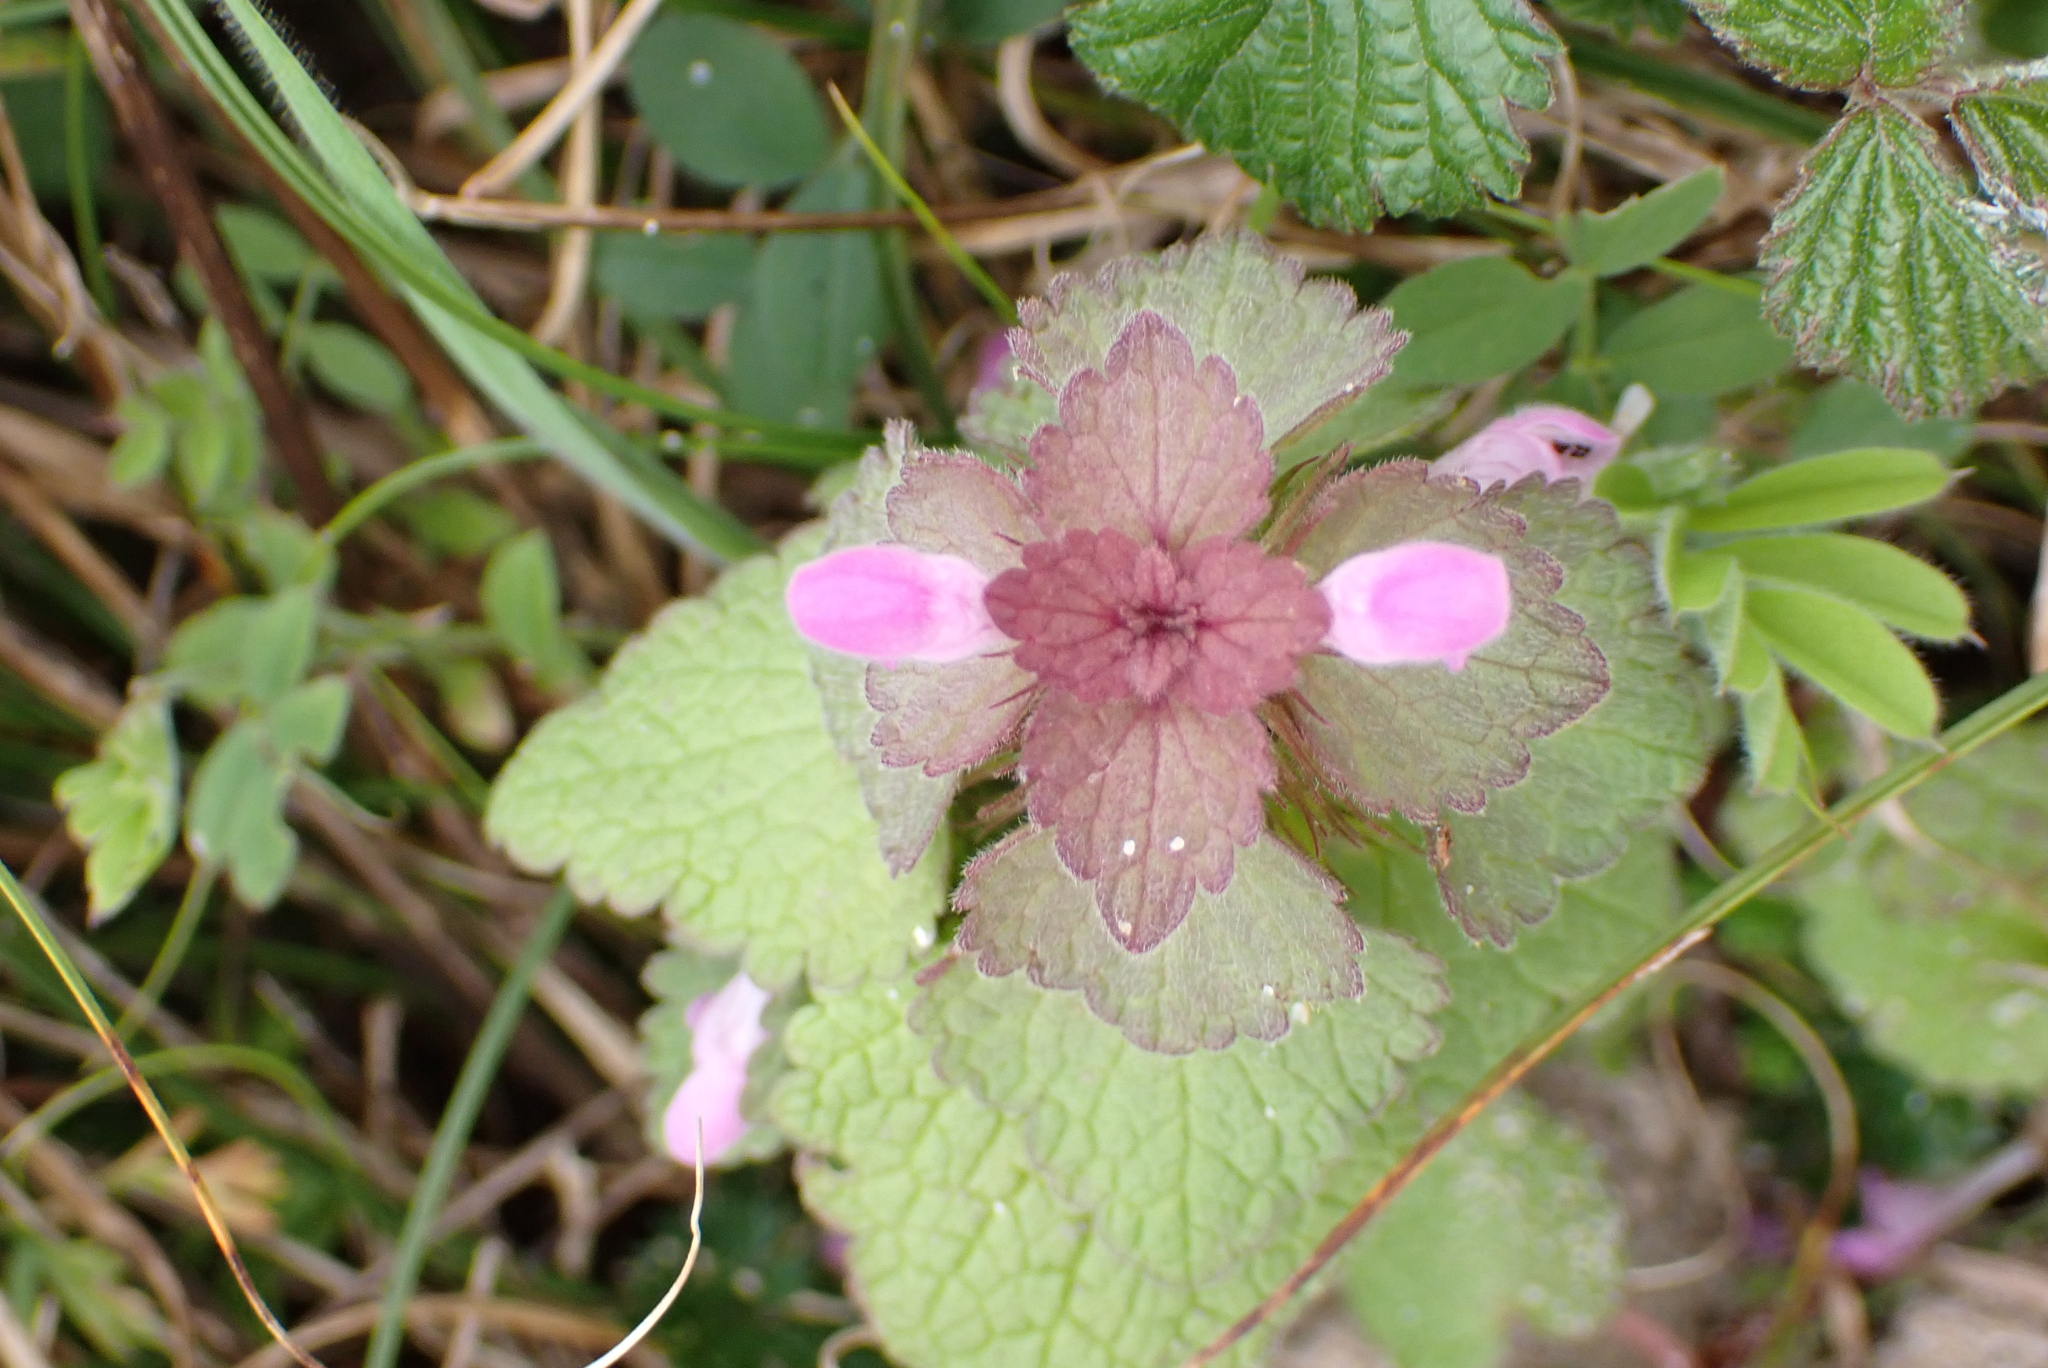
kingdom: Plantae
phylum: Tracheophyta
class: Magnoliopsida
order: Lamiales
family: Lamiaceae
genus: Lamium
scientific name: Lamium purpureum
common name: Red dead-nettle
